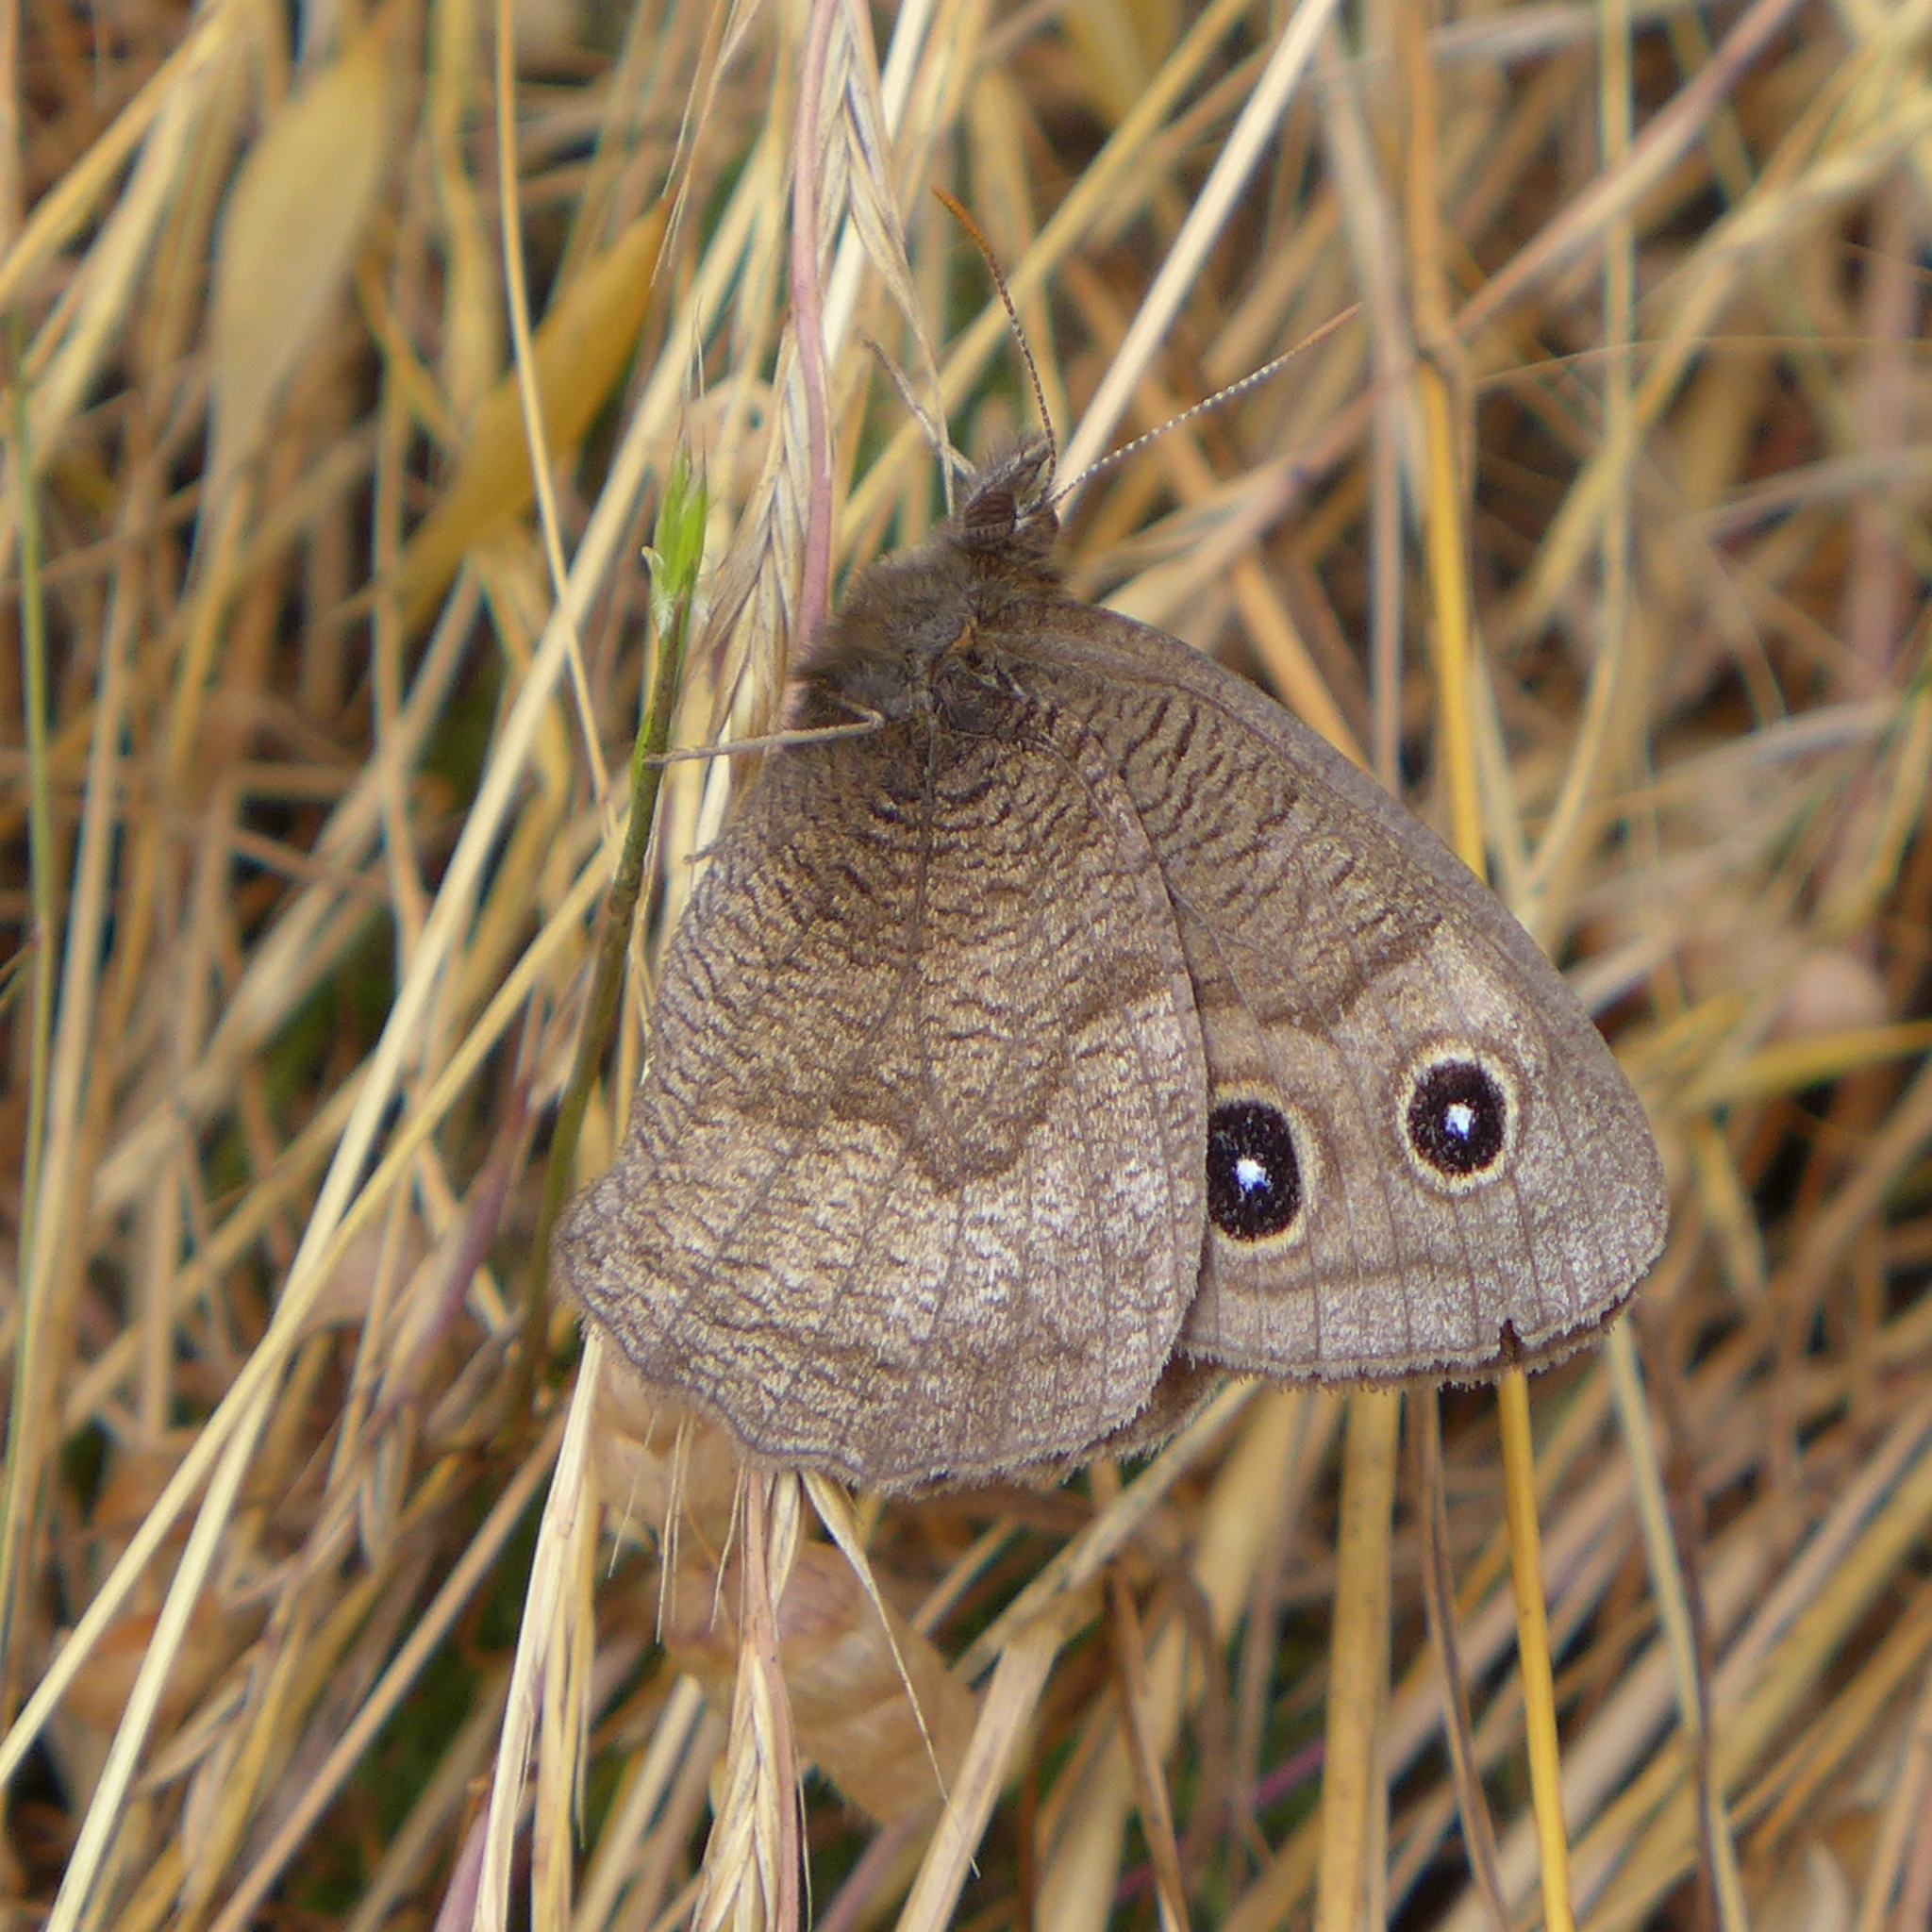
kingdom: Animalia
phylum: Arthropoda
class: Insecta
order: Lepidoptera
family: Nymphalidae
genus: Cercyonis
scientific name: Cercyonis pegala
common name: Common wood-nymph
